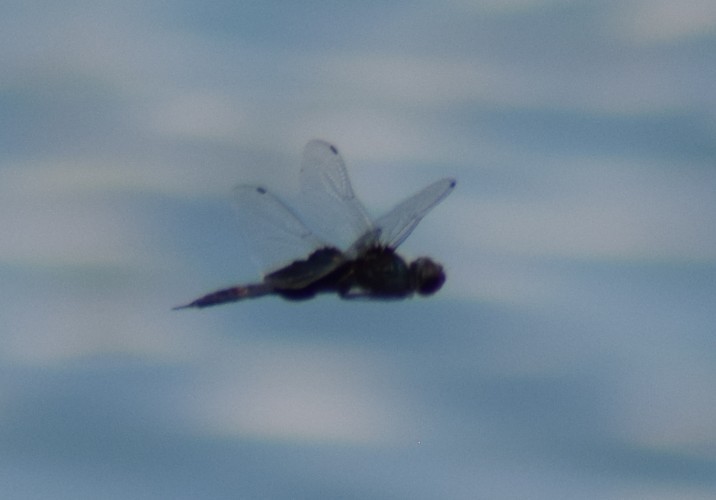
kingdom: Animalia
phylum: Arthropoda
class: Insecta
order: Odonata
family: Libellulidae
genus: Tramea
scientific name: Tramea lacerata
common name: Black saddlebags
